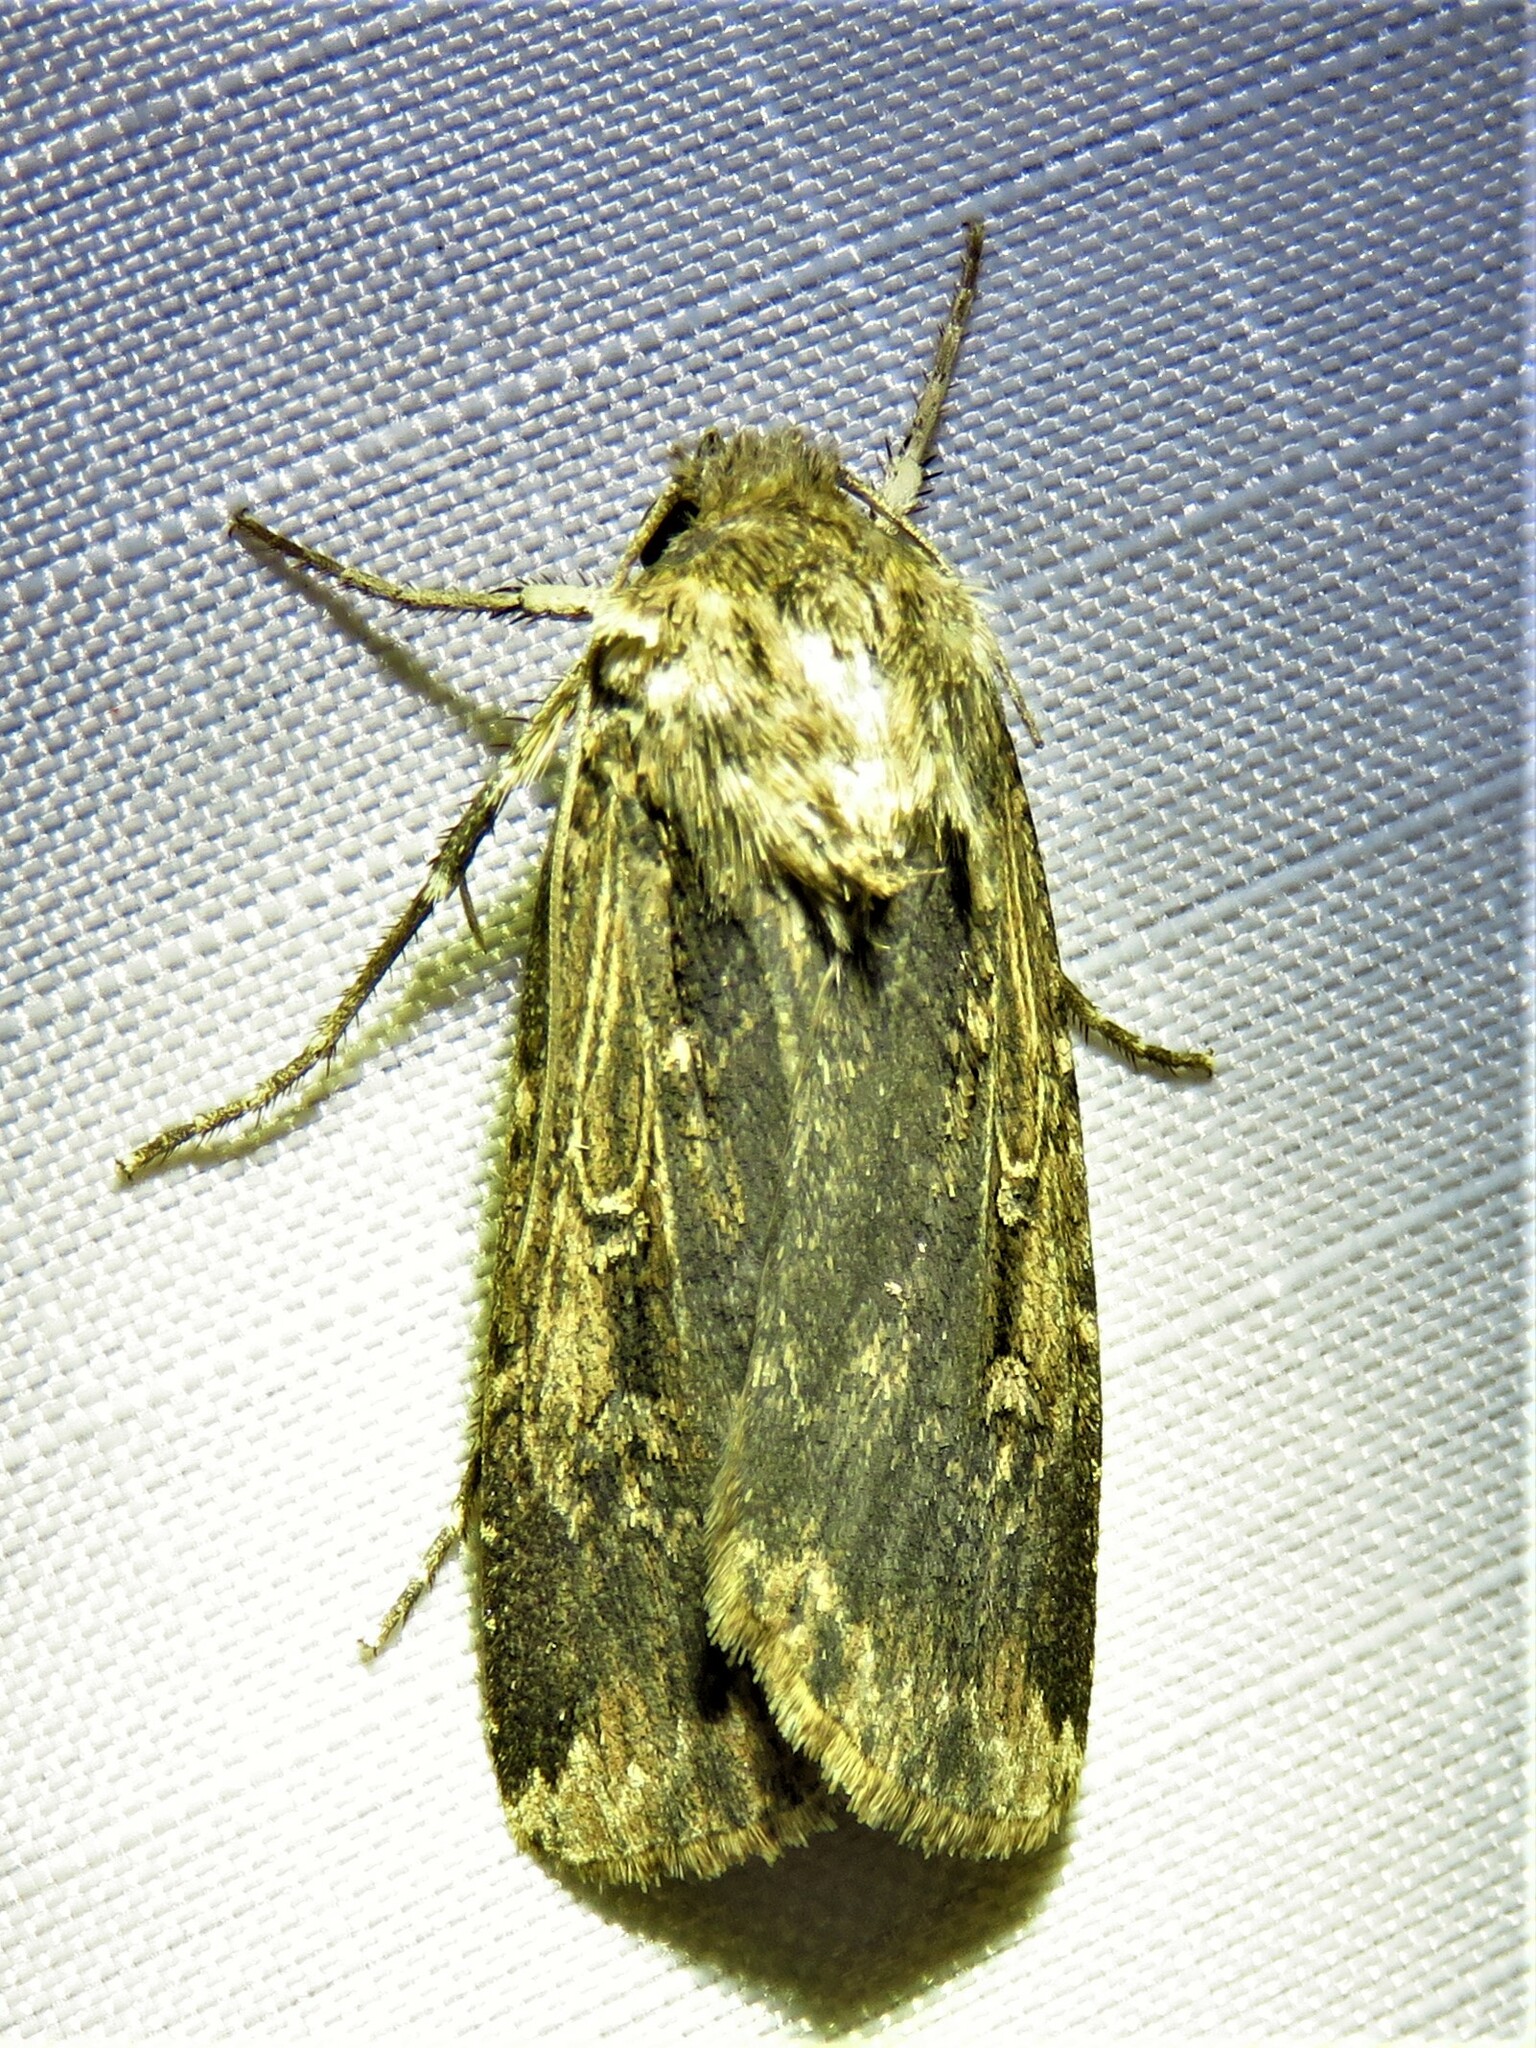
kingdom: Animalia
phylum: Arthropoda
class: Insecta
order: Lepidoptera
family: Noctuidae
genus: Feltia
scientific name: Feltia subterranea
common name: Granulate cutworm
